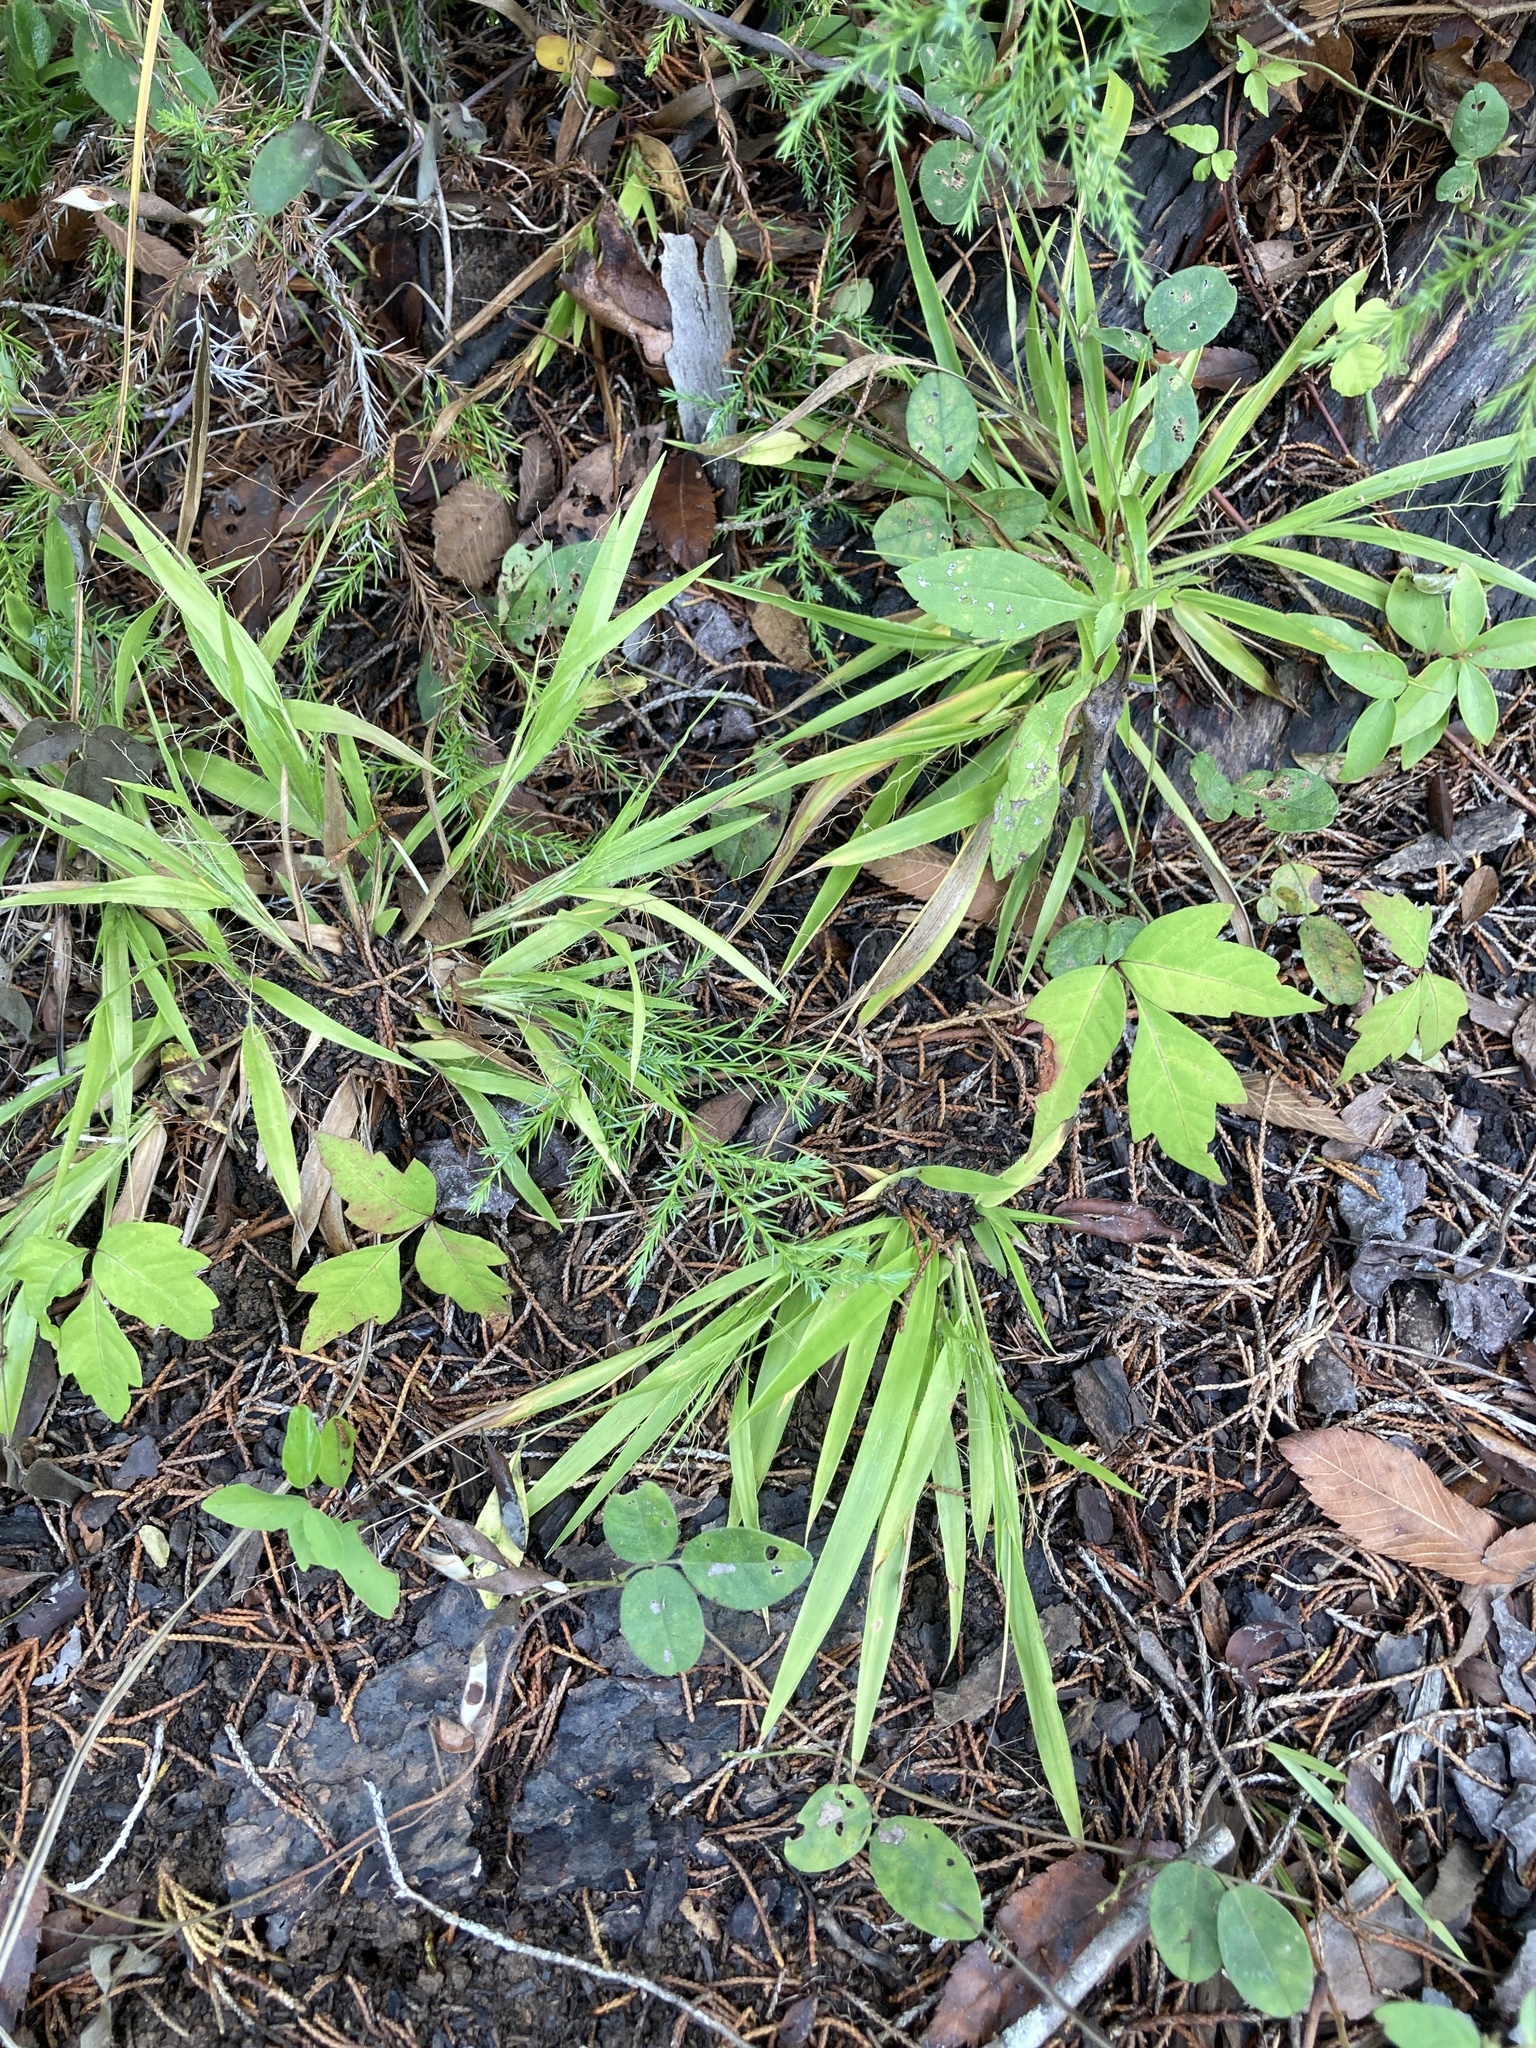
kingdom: Plantae
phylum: Tracheophyta
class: Liliopsida
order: Poales
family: Poaceae
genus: Dichanthelium
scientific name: Dichanthelium laxiflorum
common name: Soft-tuft panic grass
